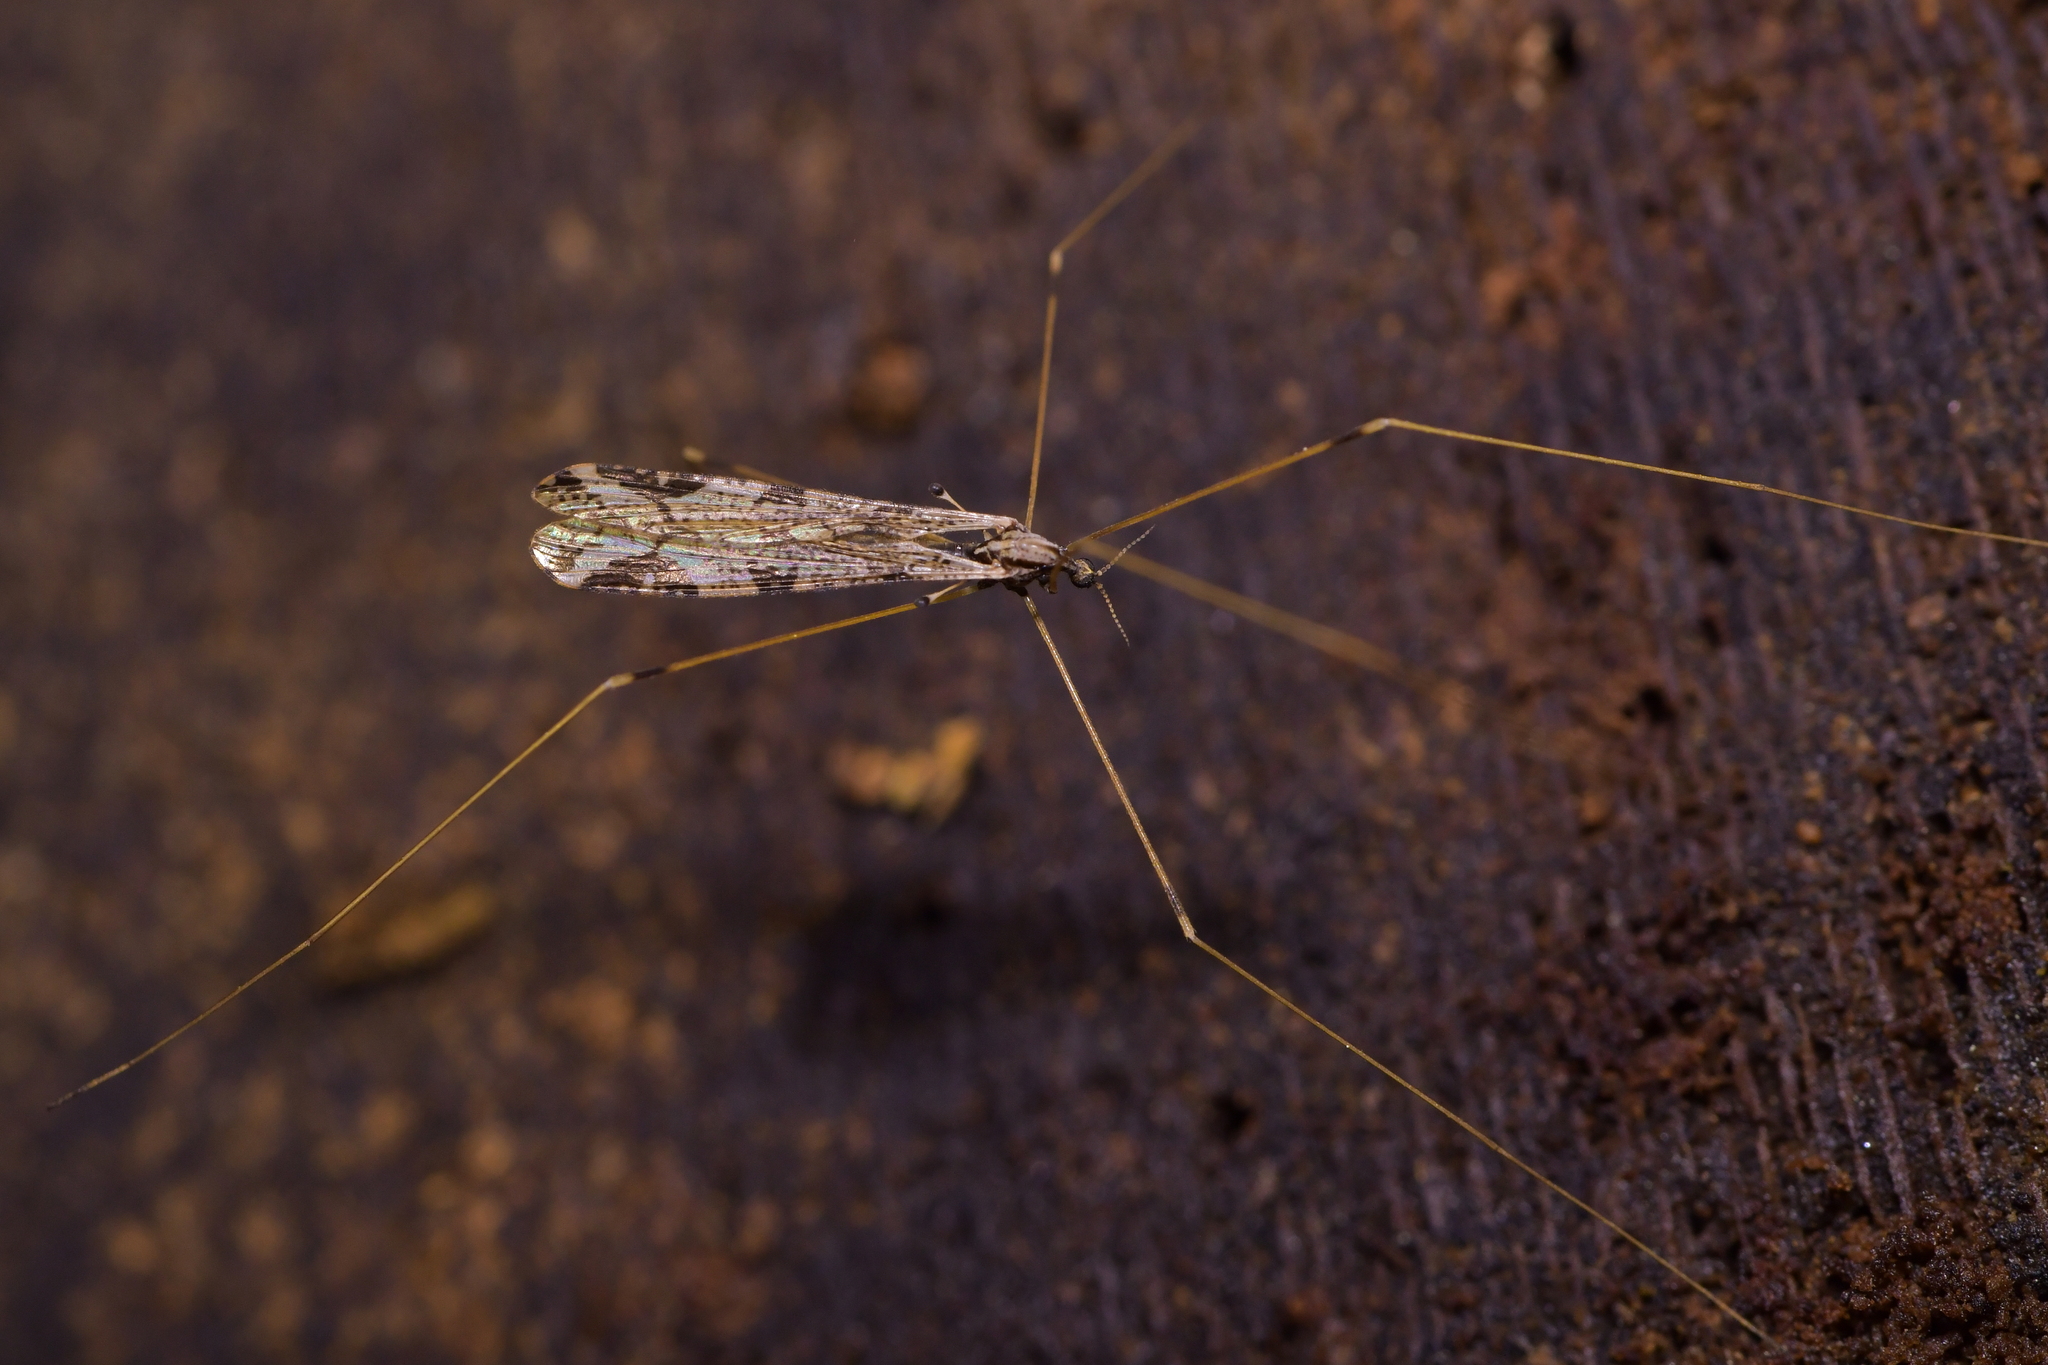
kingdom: Animalia
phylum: Arthropoda
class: Insecta
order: Diptera
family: Limoniidae
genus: Discobola
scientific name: Discobola striata
